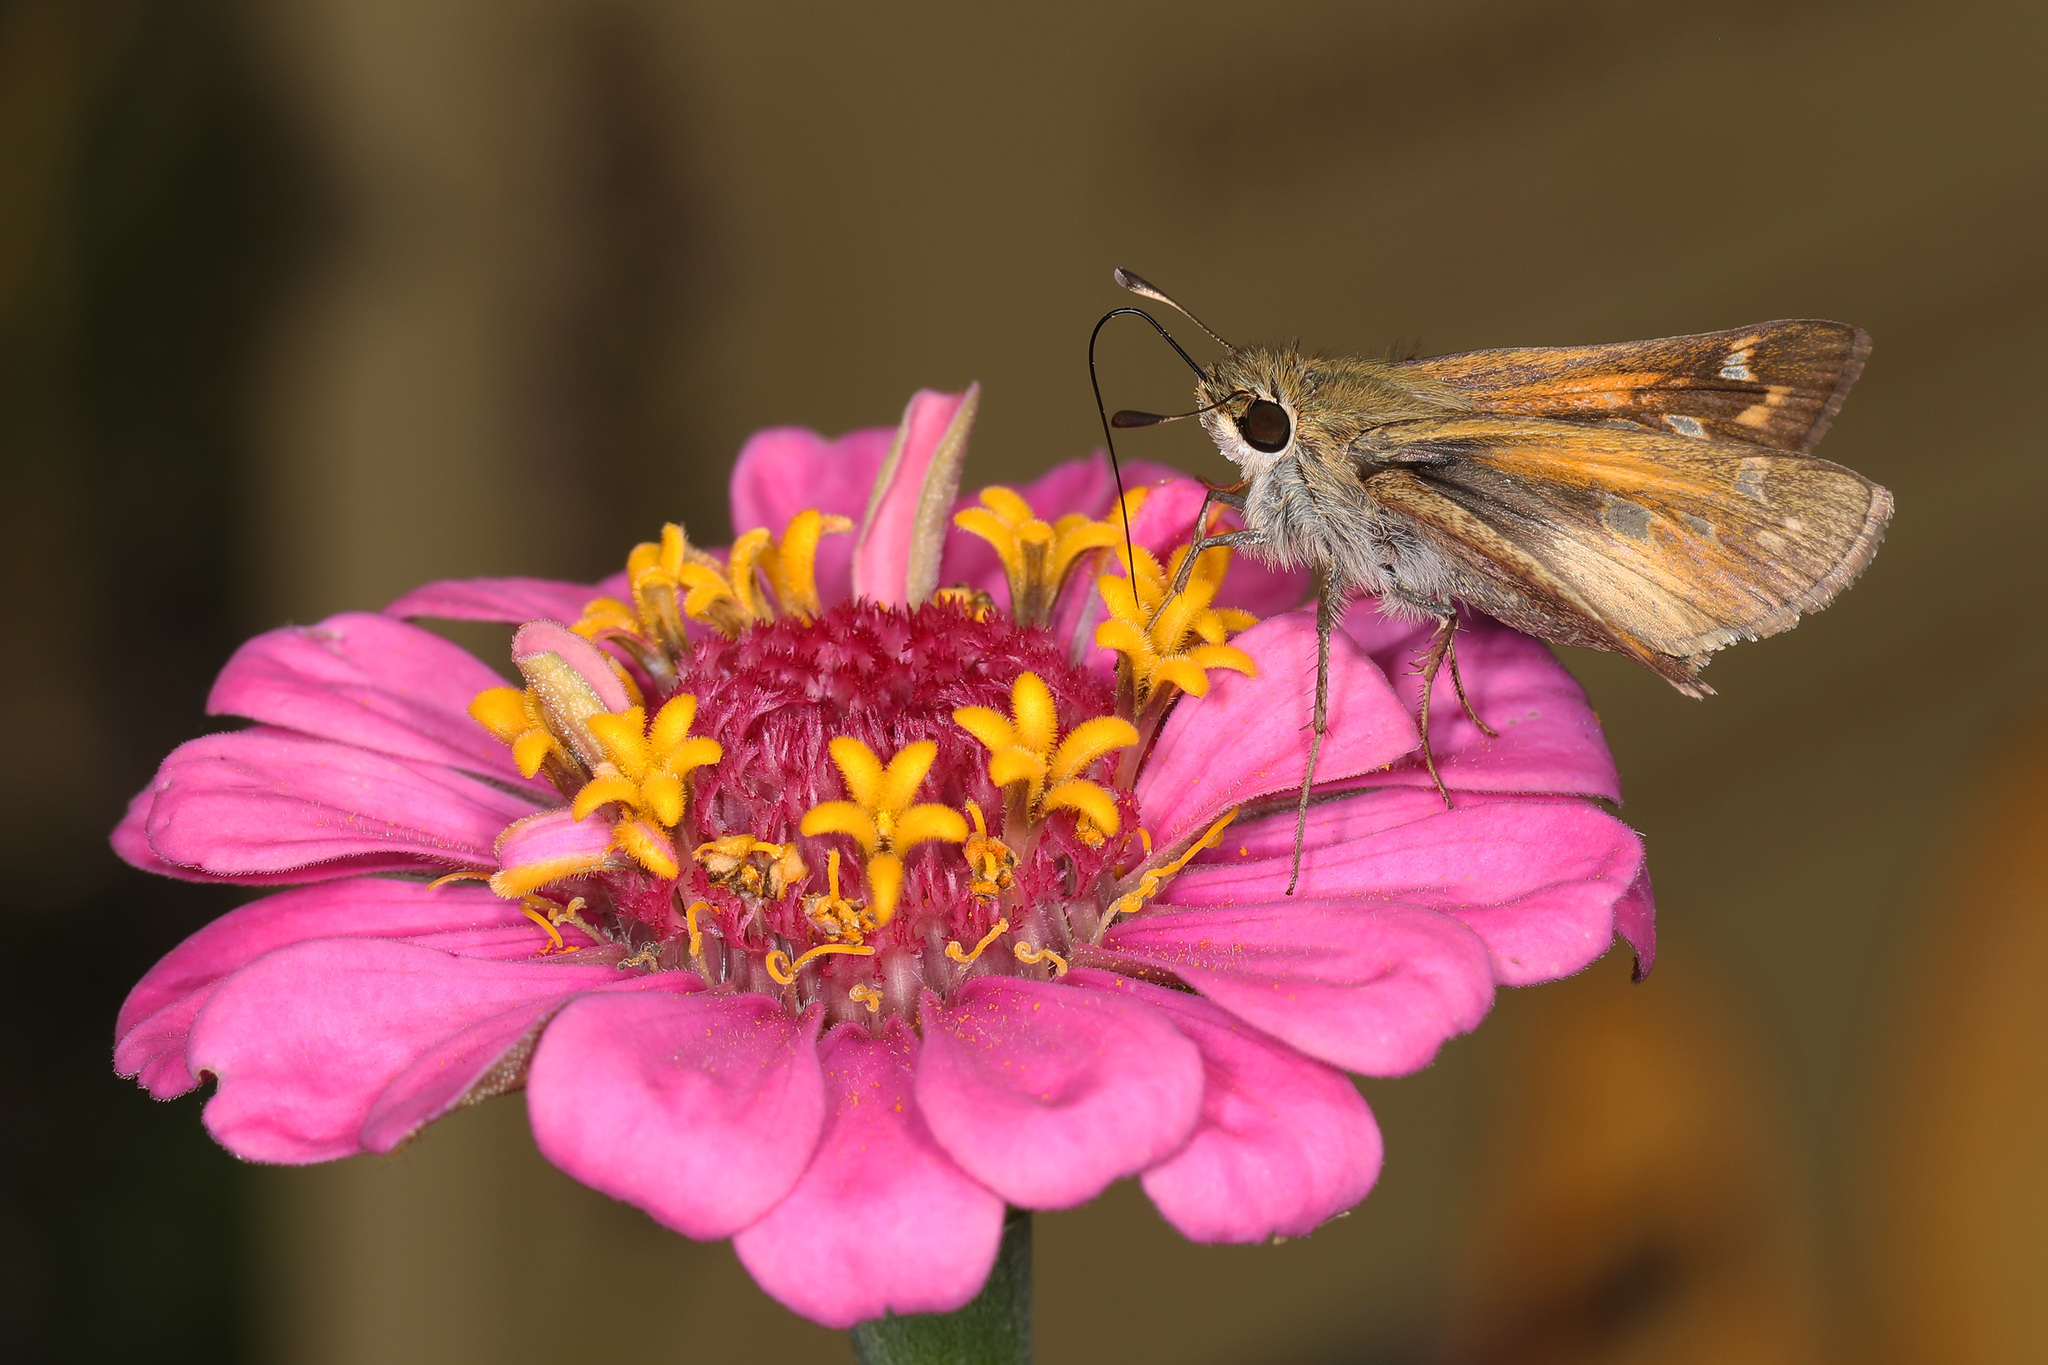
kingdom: Animalia
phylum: Arthropoda
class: Insecta
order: Lepidoptera
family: Hesperiidae
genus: Atalopedes
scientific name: Atalopedes
